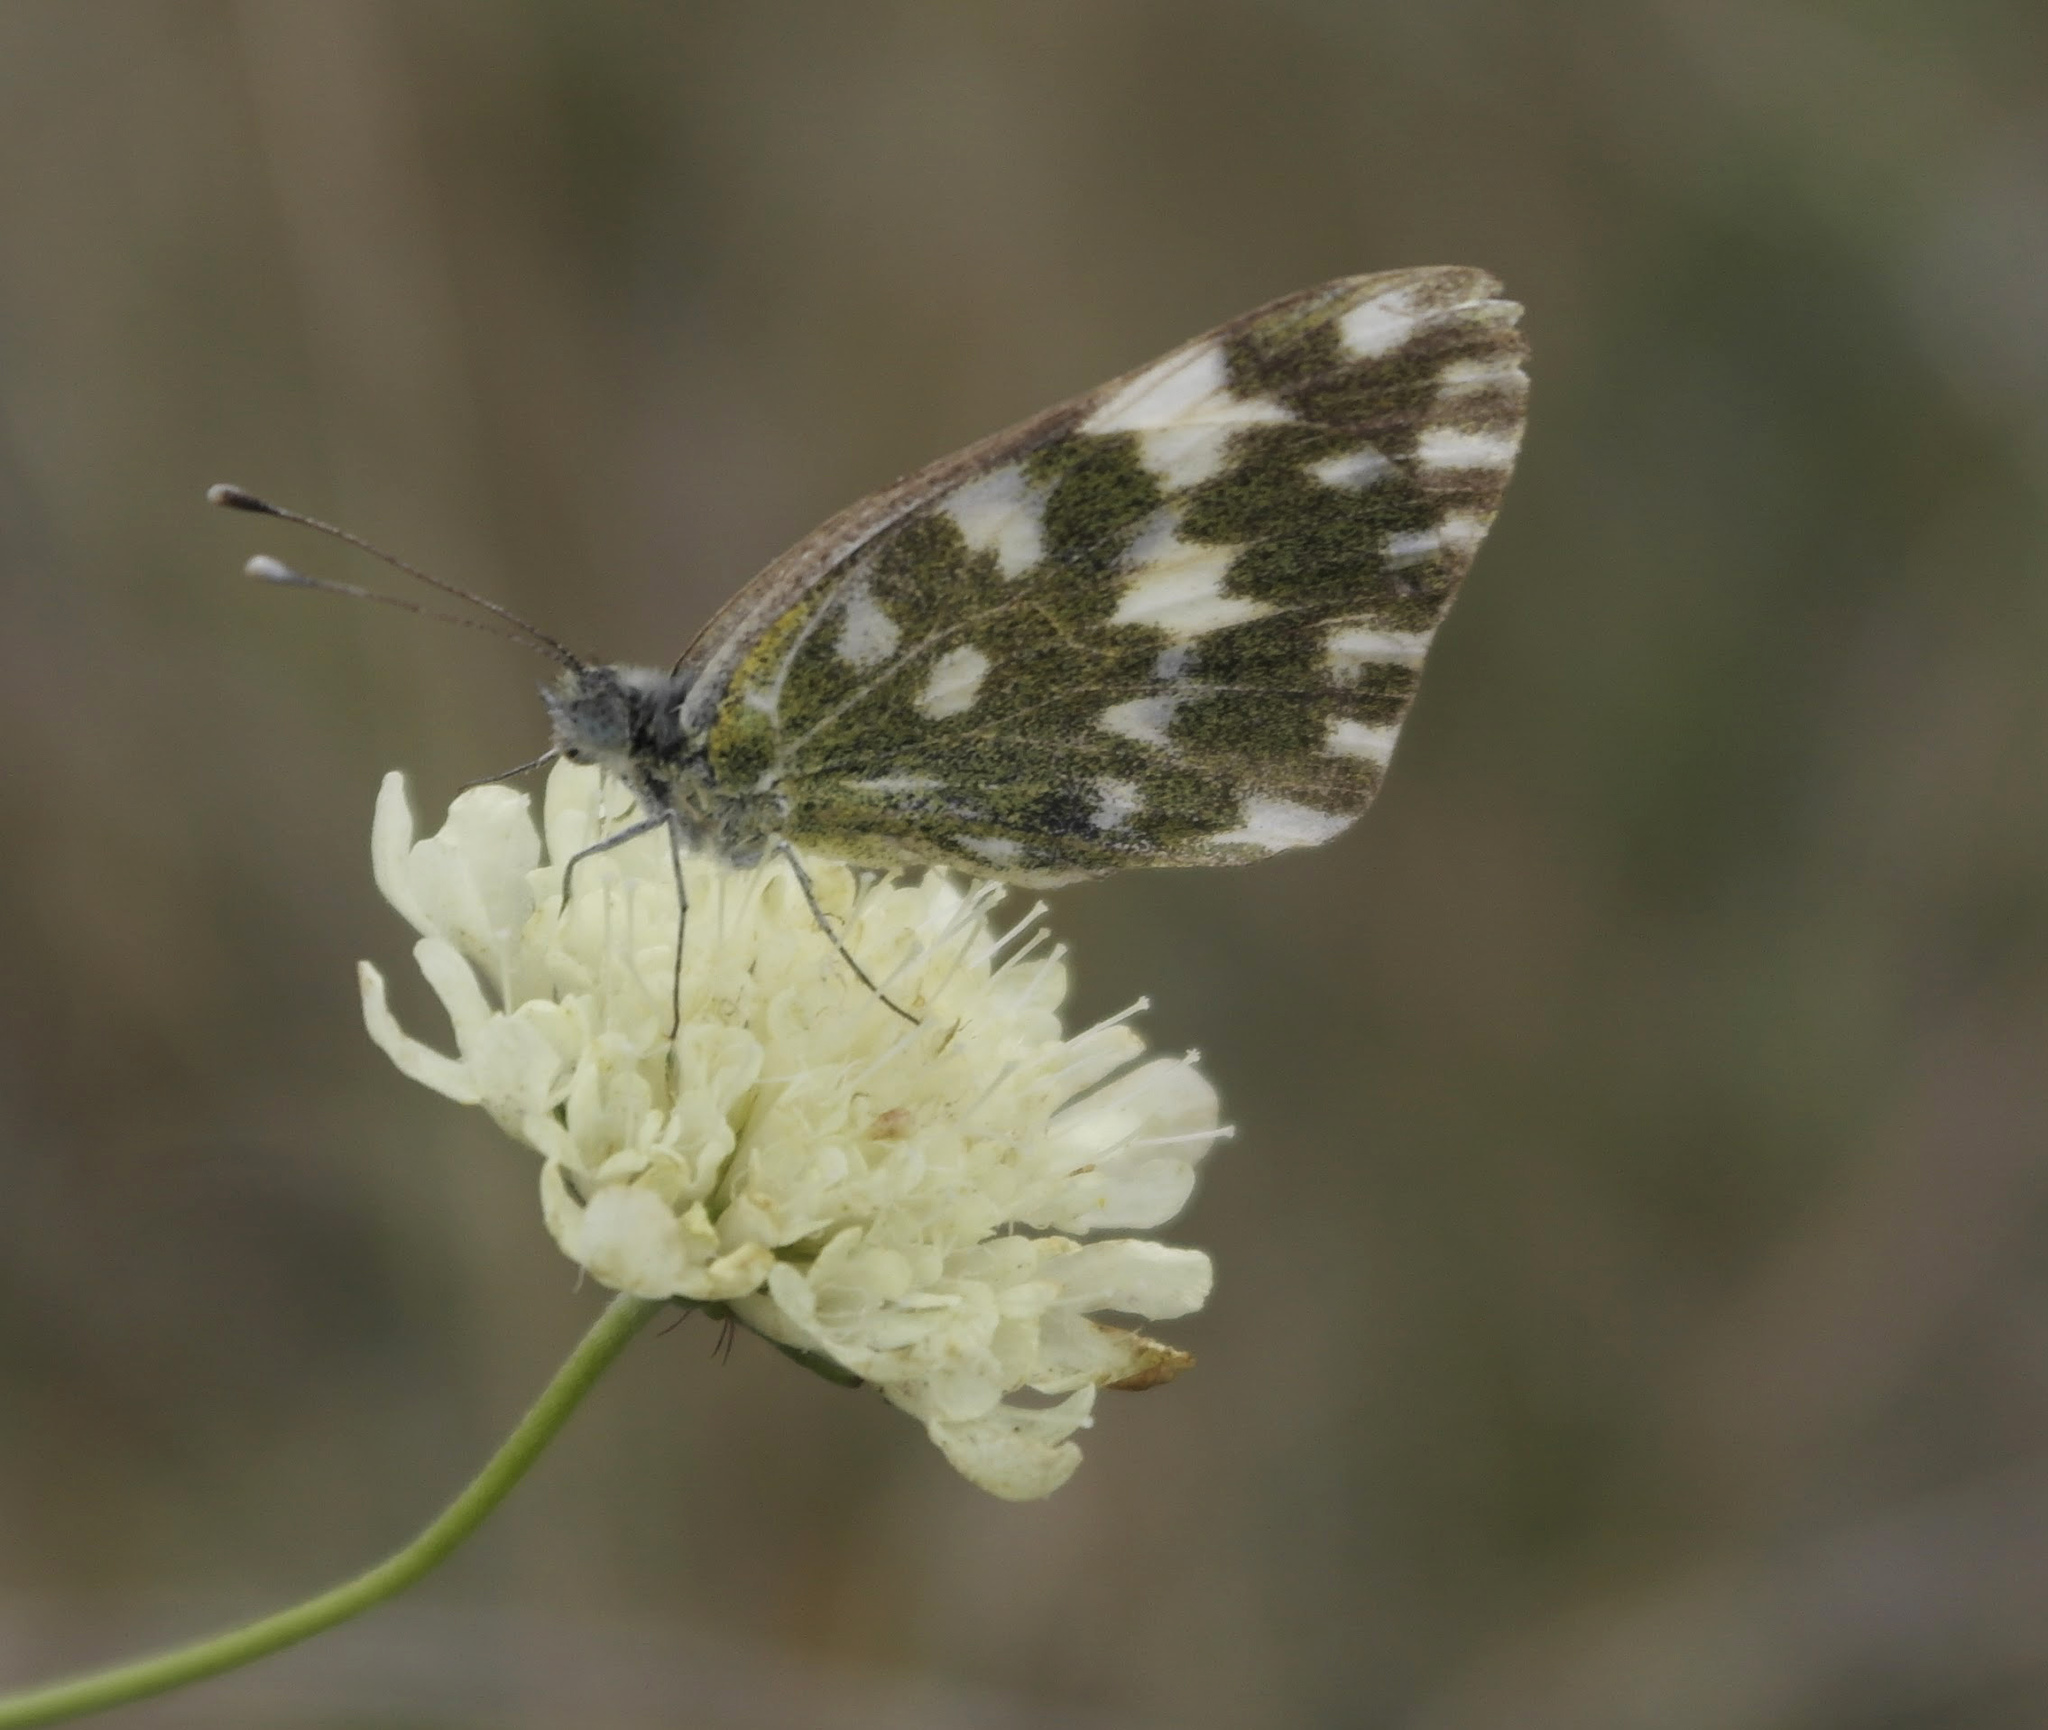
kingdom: Animalia
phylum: Arthropoda
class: Insecta
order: Lepidoptera
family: Pieridae
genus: Pontia
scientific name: Pontia edusa
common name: Eastern bath white
